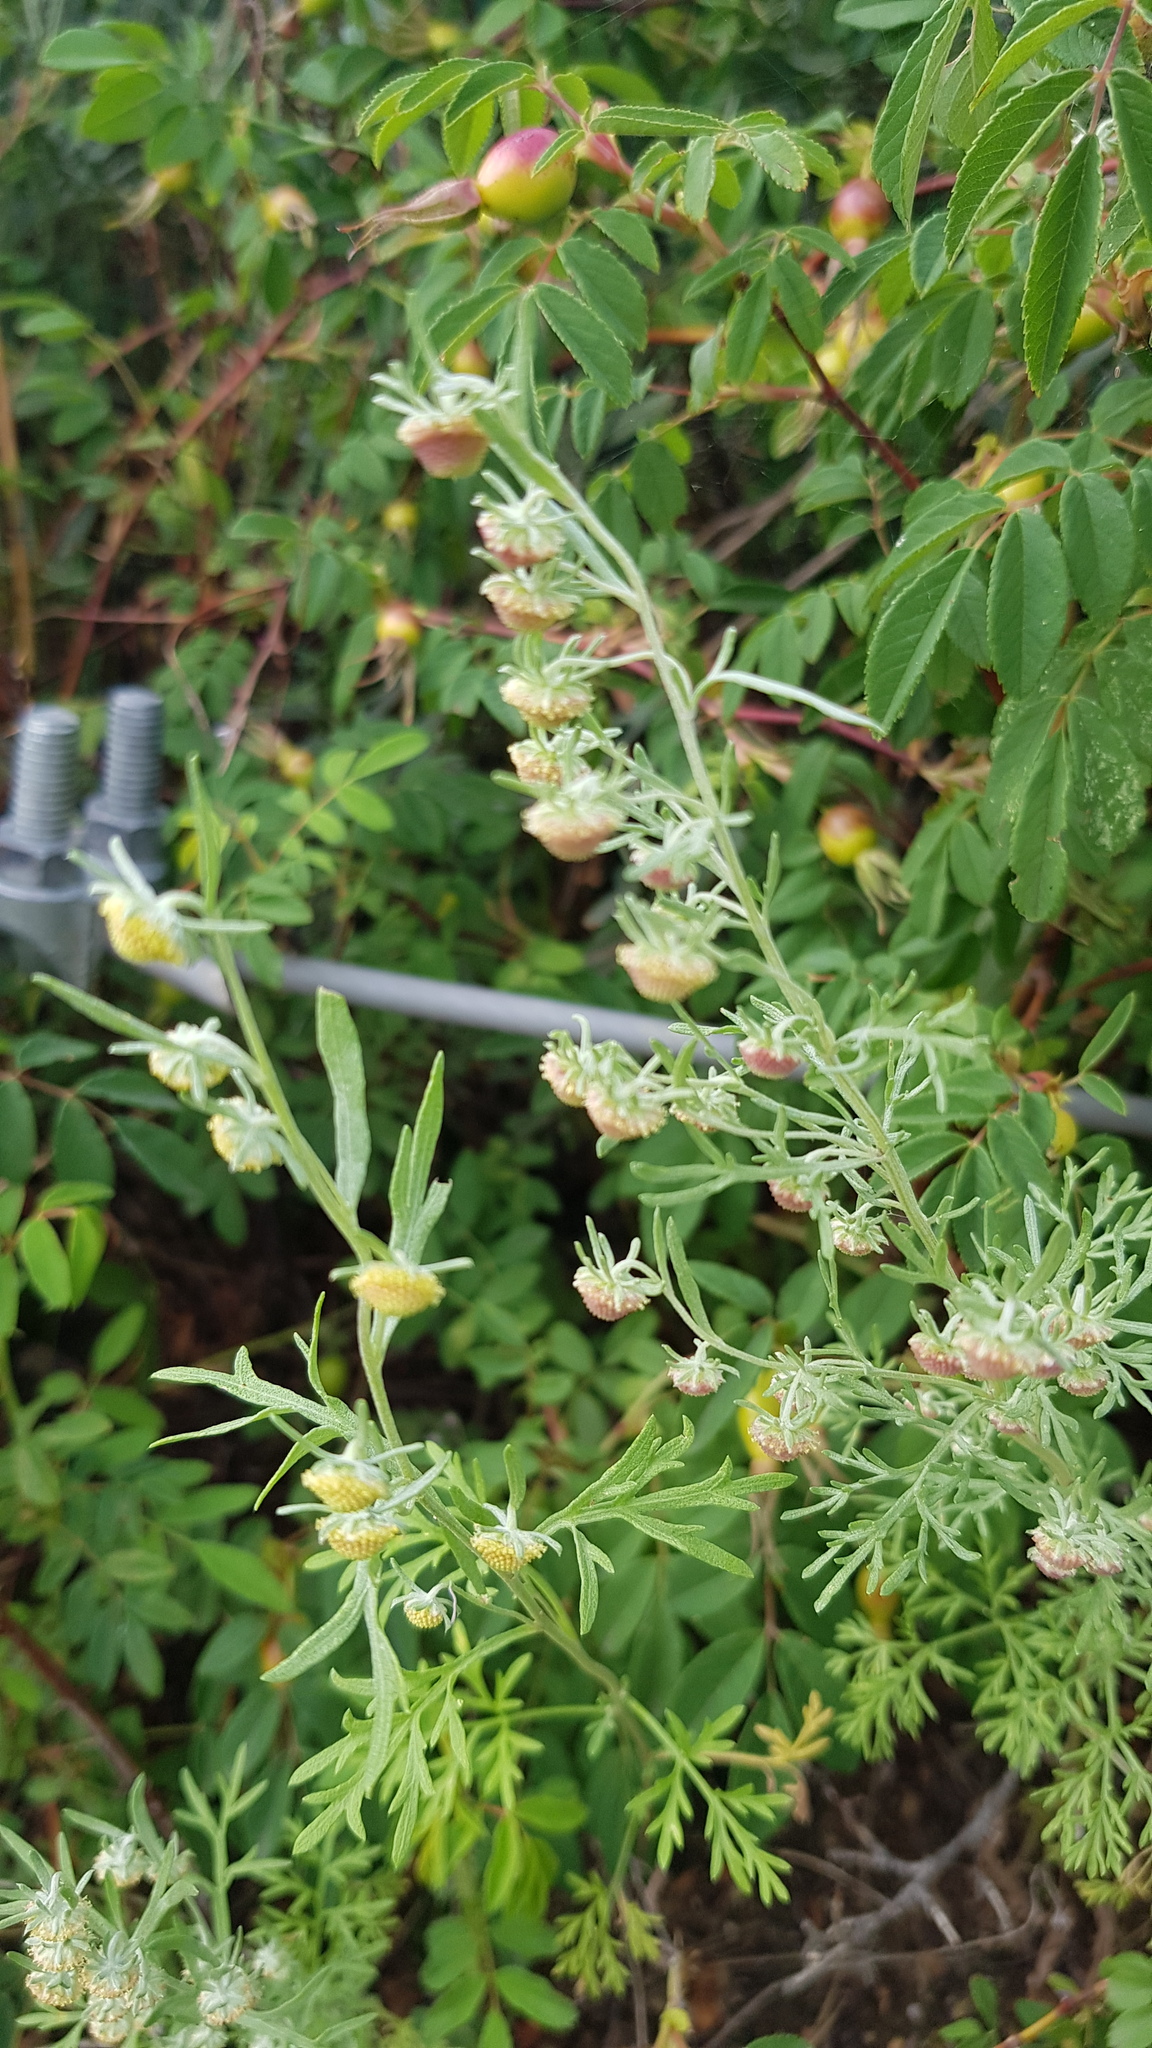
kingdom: Plantae
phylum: Tracheophyta
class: Magnoliopsida
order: Asterales
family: Asteraceae
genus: Artemisia
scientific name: Artemisia macrocephala
